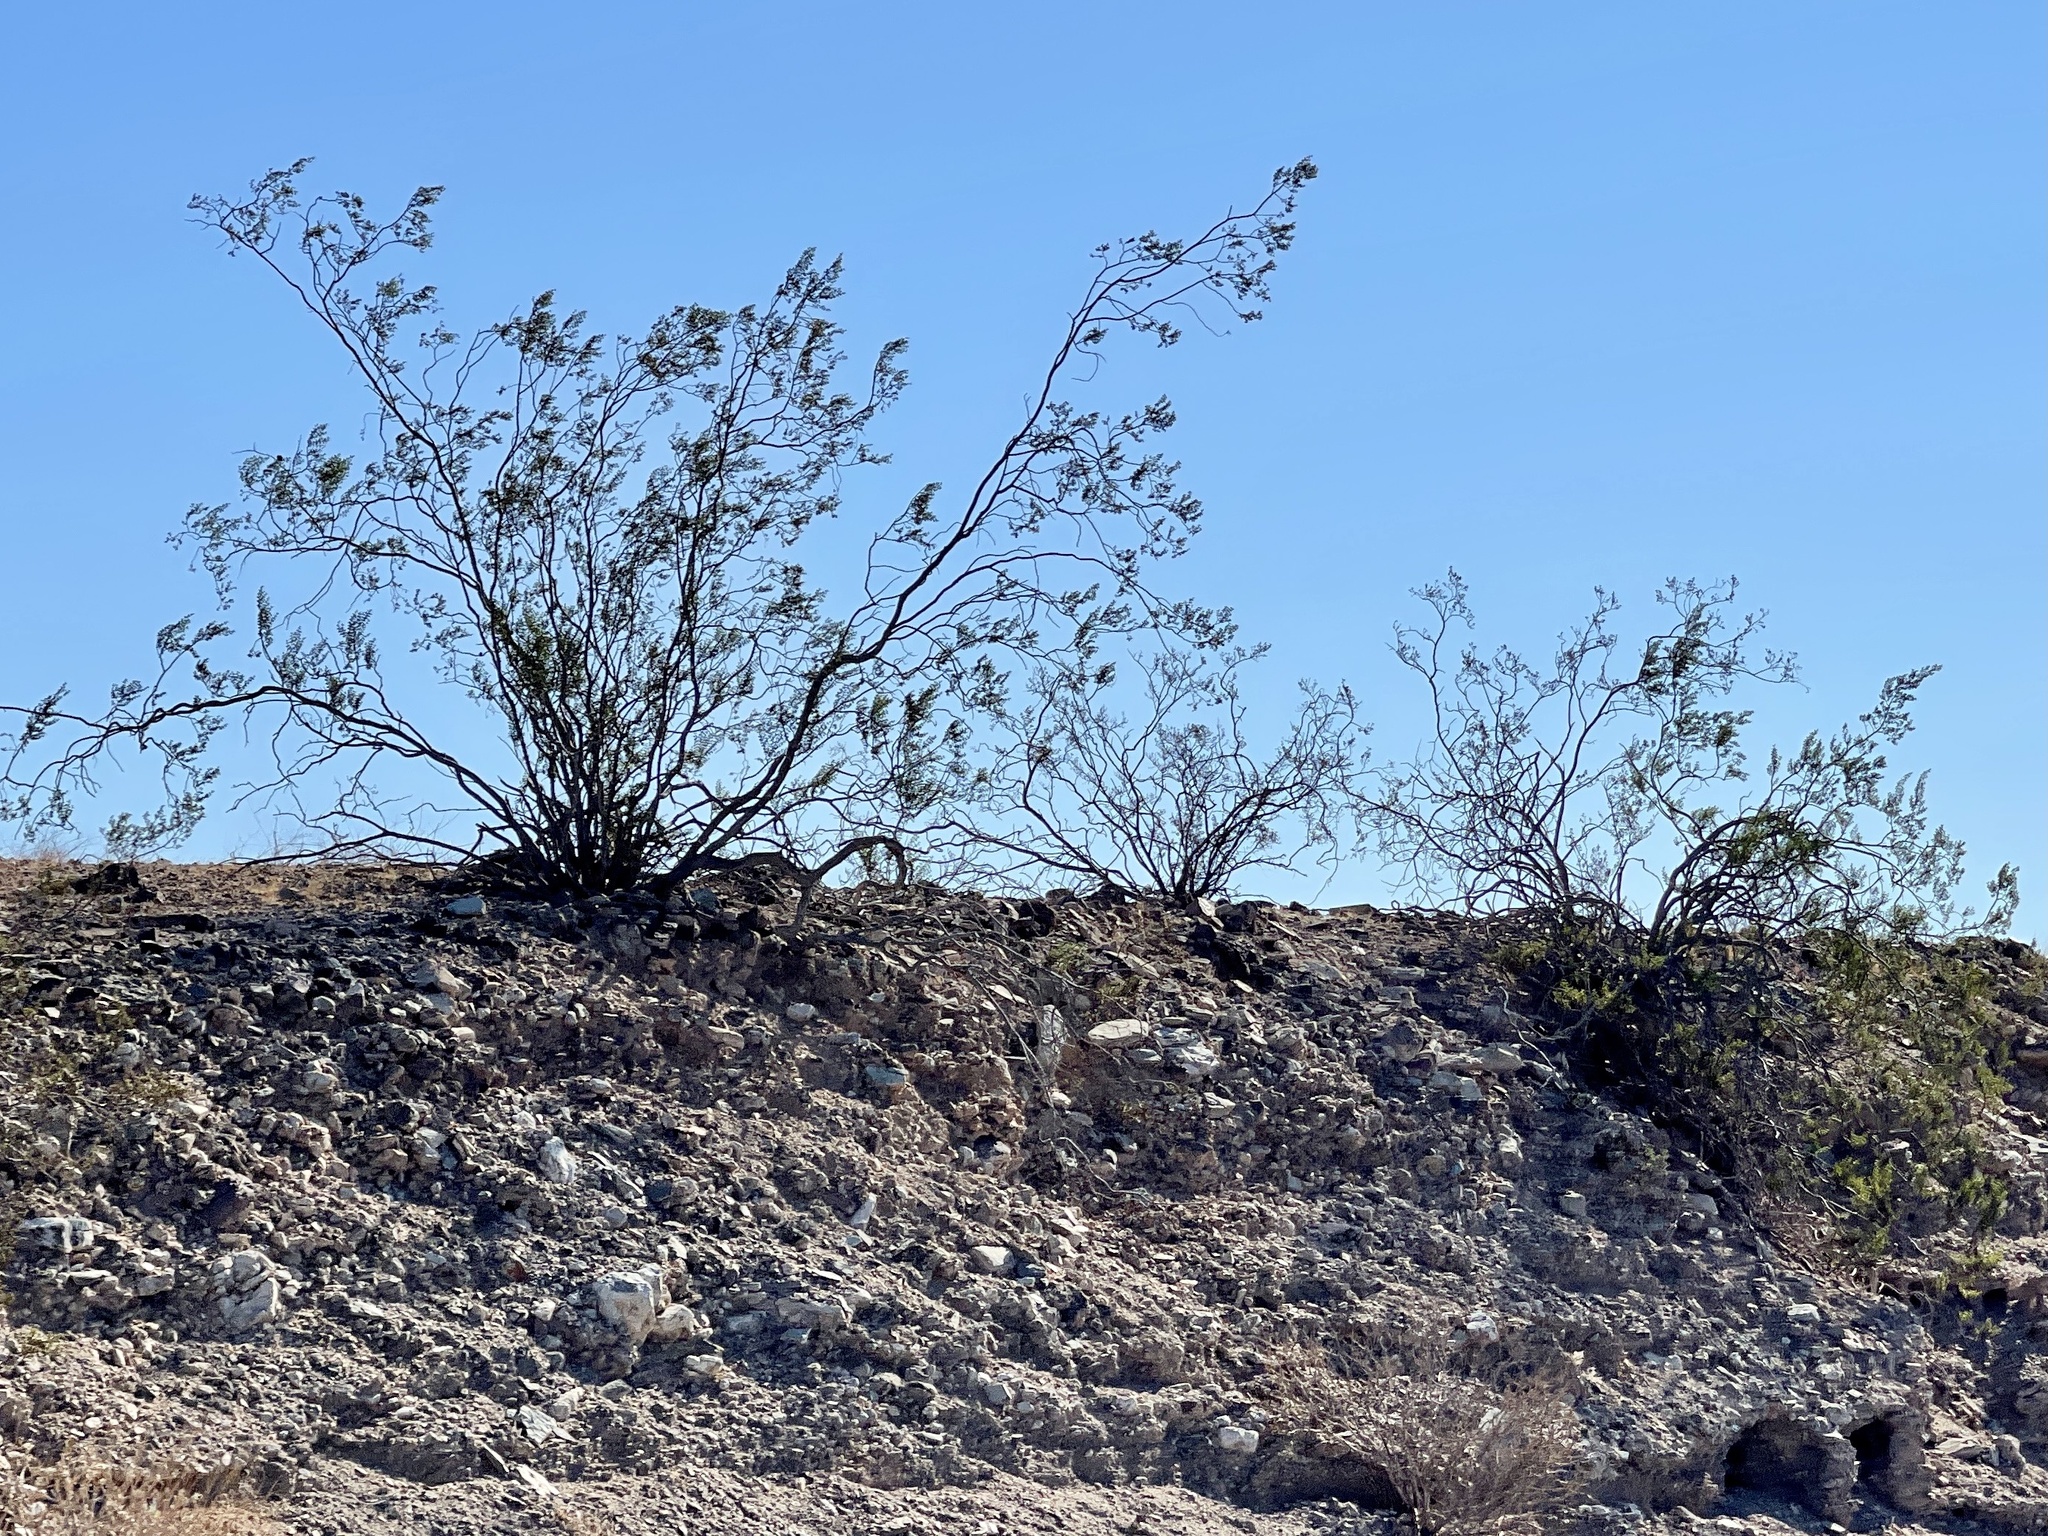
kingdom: Plantae
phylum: Tracheophyta
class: Magnoliopsida
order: Zygophyllales
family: Zygophyllaceae
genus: Larrea
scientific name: Larrea tridentata
